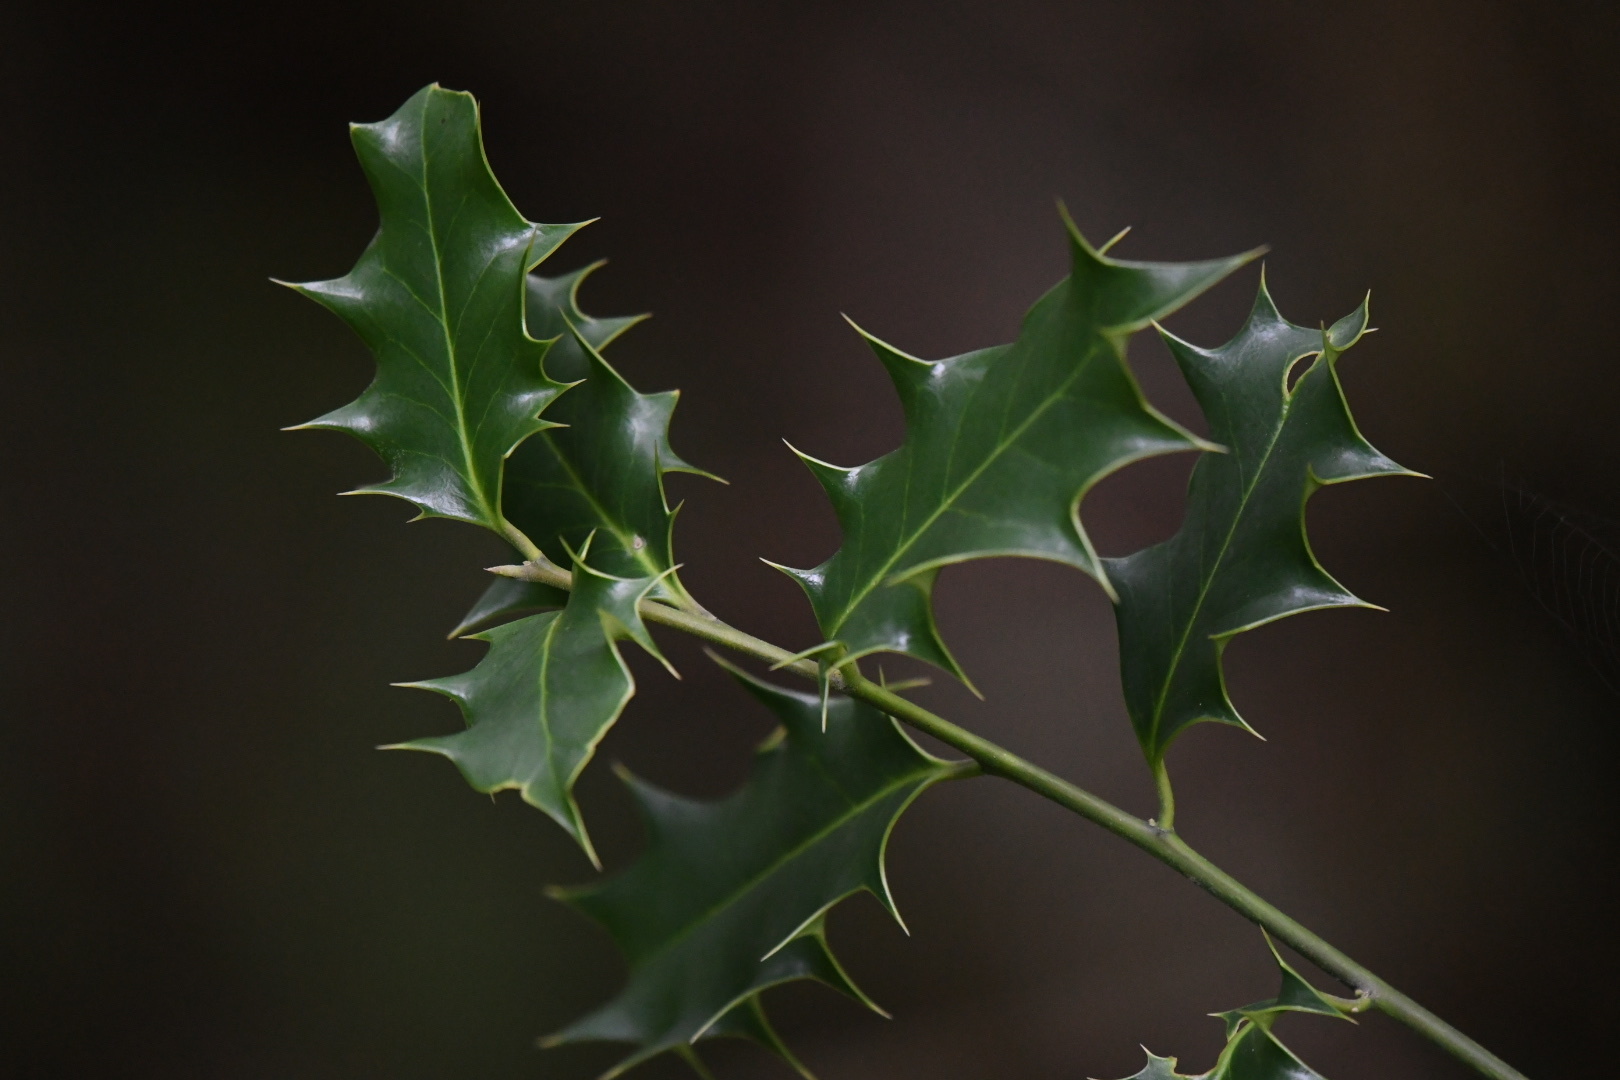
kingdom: Plantae
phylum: Tracheophyta
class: Magnoliopsida
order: Aquifoliales
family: Aquifoliaceae
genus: Ilex
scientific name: Ilex aquifolium
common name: English holly
